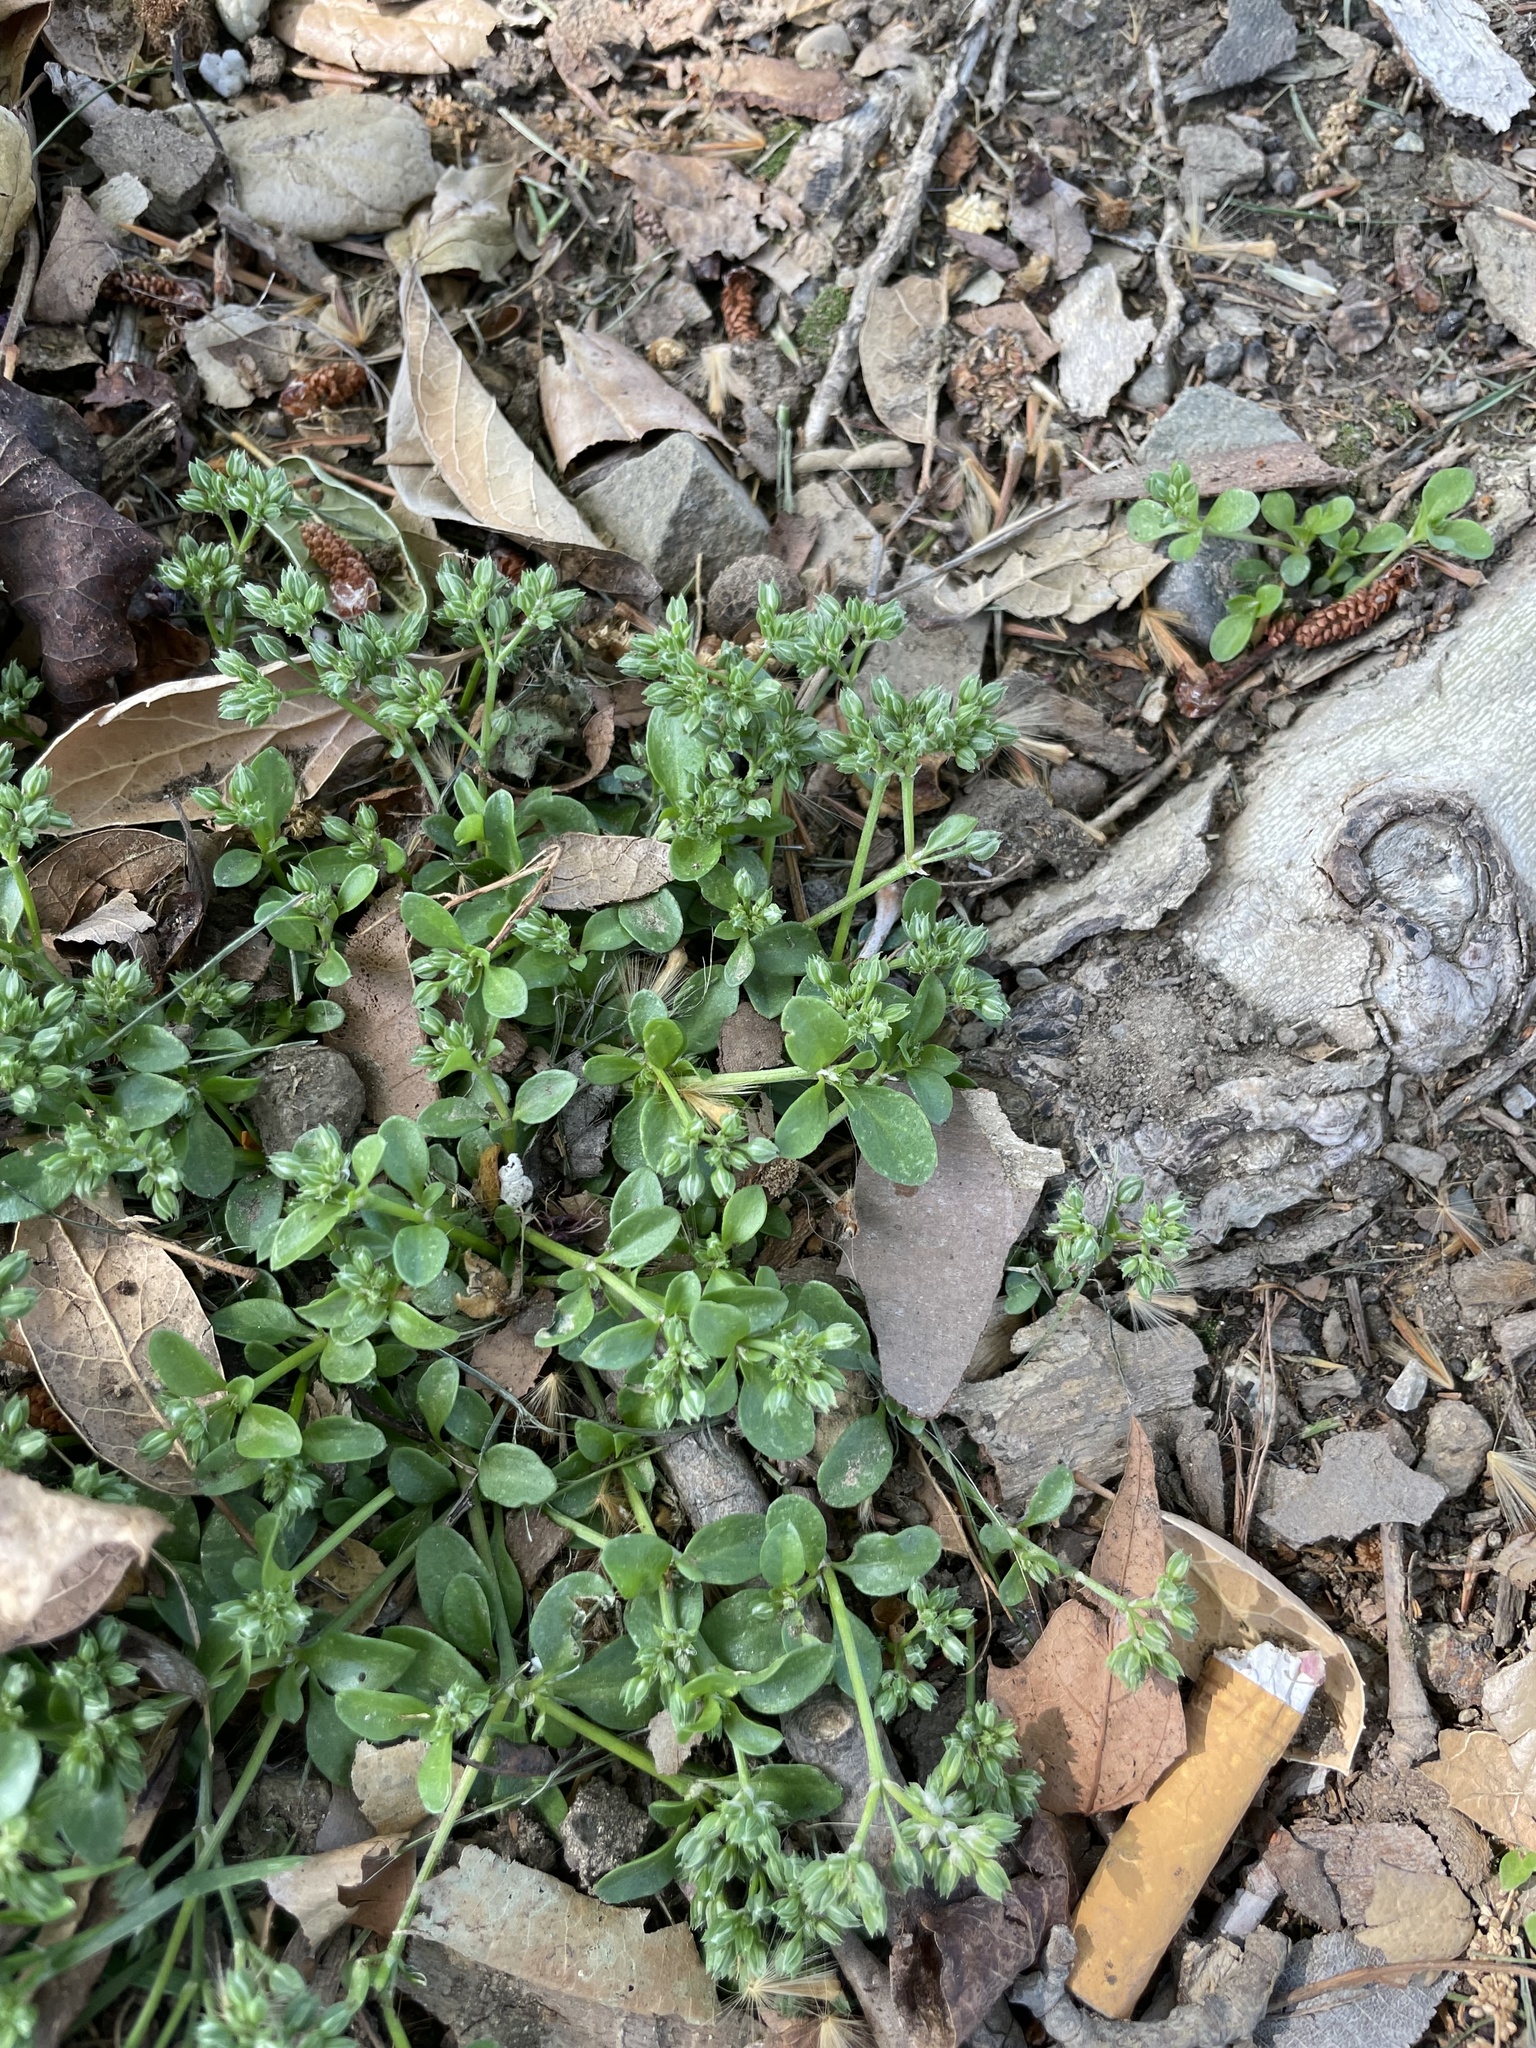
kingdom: Plantae
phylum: Tracheophyta
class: Magnoliopsida
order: Caryophyllales
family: Caryophyllaceae
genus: Polycarpon
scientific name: Polycarpon tetraphyllum
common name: Four-leaved all-seed
